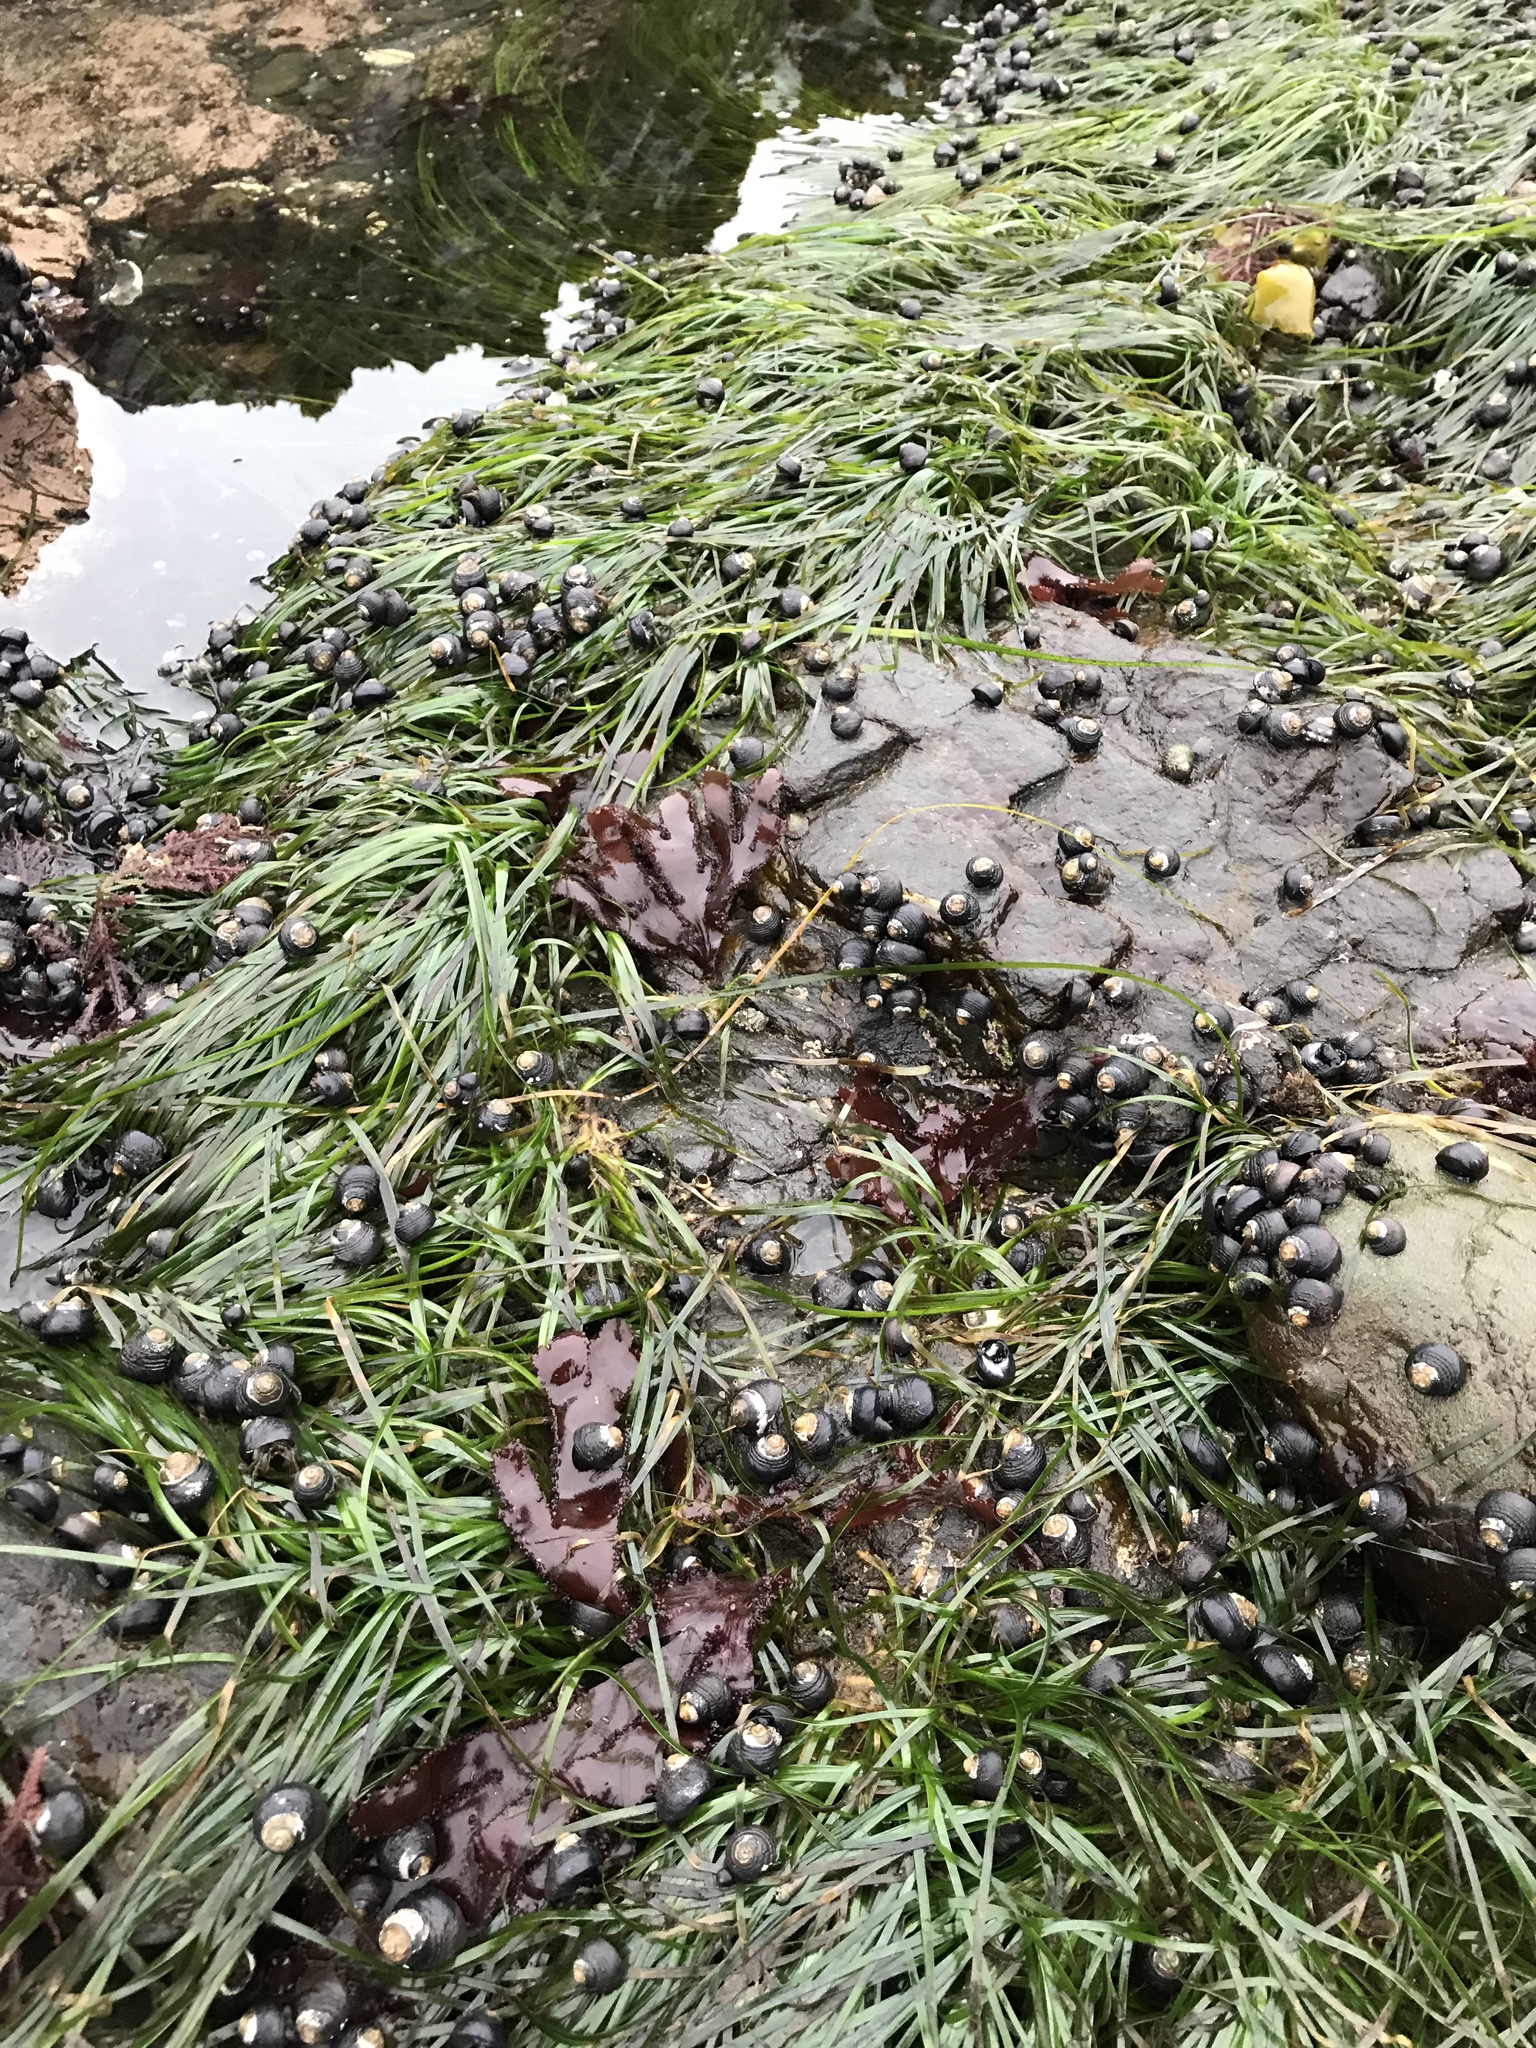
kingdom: Plantae
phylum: Tracheophyta
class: Liliopsida
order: Alismatales
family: Zosteraceae
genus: Phyllospadix
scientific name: Phyllospadix scouleri
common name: Species code: ps
